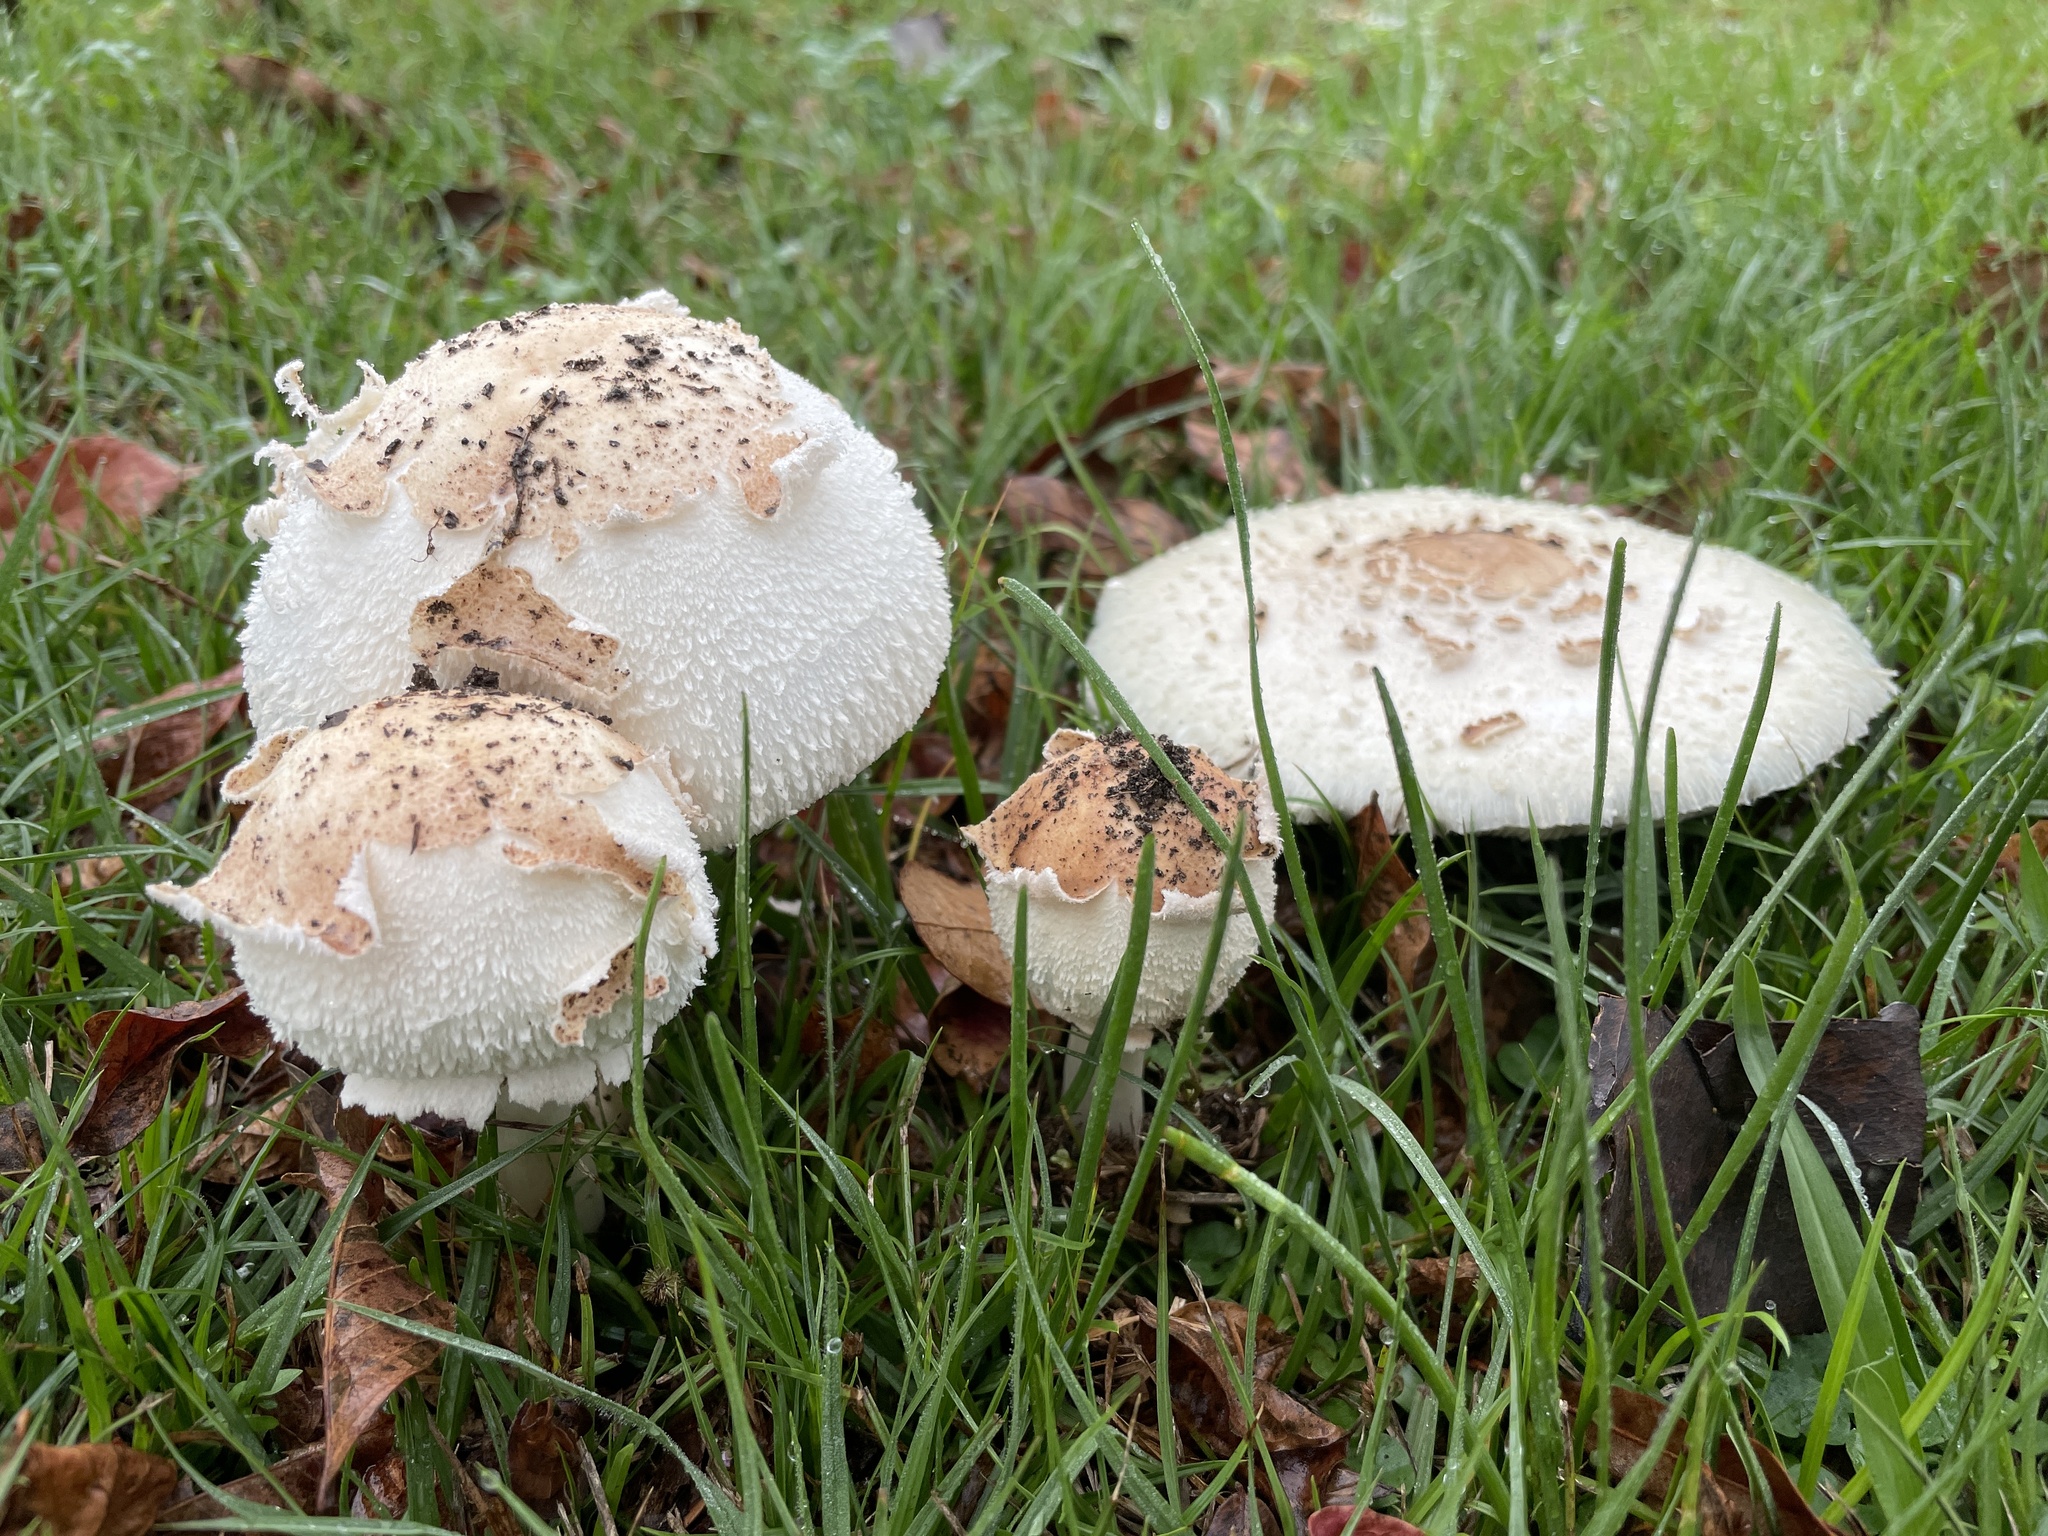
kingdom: Fungi
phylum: Basidiomycota
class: Agaricomycetes
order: Agaricales
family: Agaricaceae
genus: Chlorophyllum
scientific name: Chlorophyllum molybdites
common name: False parasol
